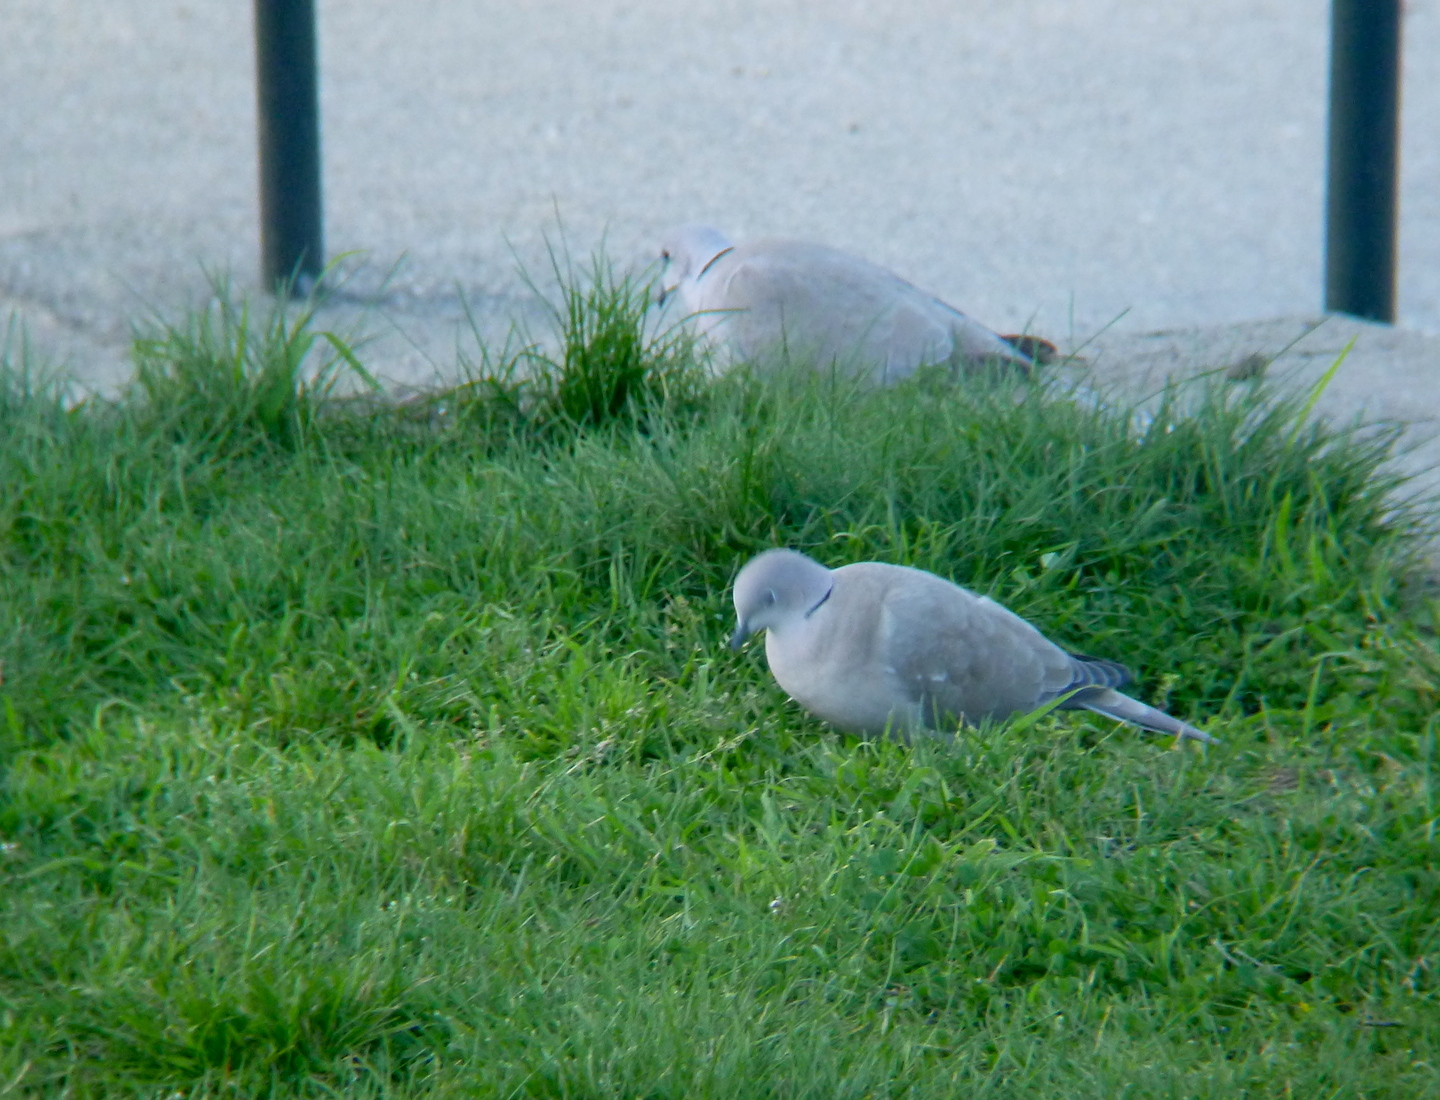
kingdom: Animalia
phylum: Chordata
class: Aves
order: Columbiformes
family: Columbidae
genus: Streptopelia
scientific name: Streptopelia decaocto
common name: Eurasian collared dove
